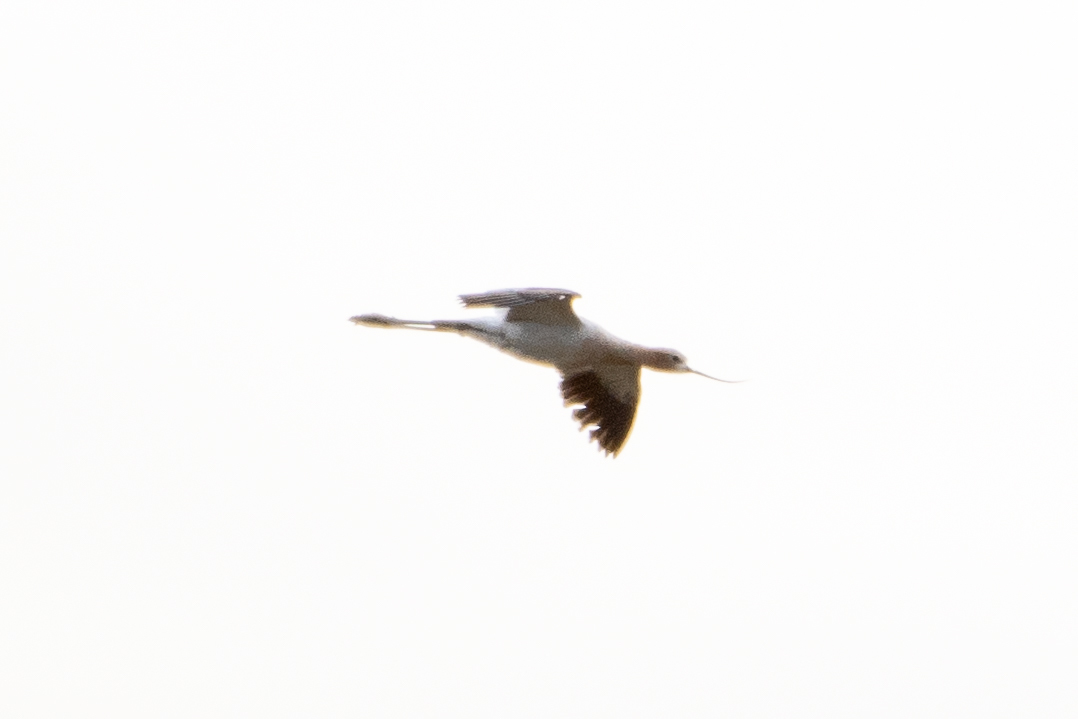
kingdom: Animalia
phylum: Chordata
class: Aves
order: Charadriiformes
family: Recurvirostridae
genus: Recurvirostra
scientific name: Recurvirostra americana
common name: American avocet
